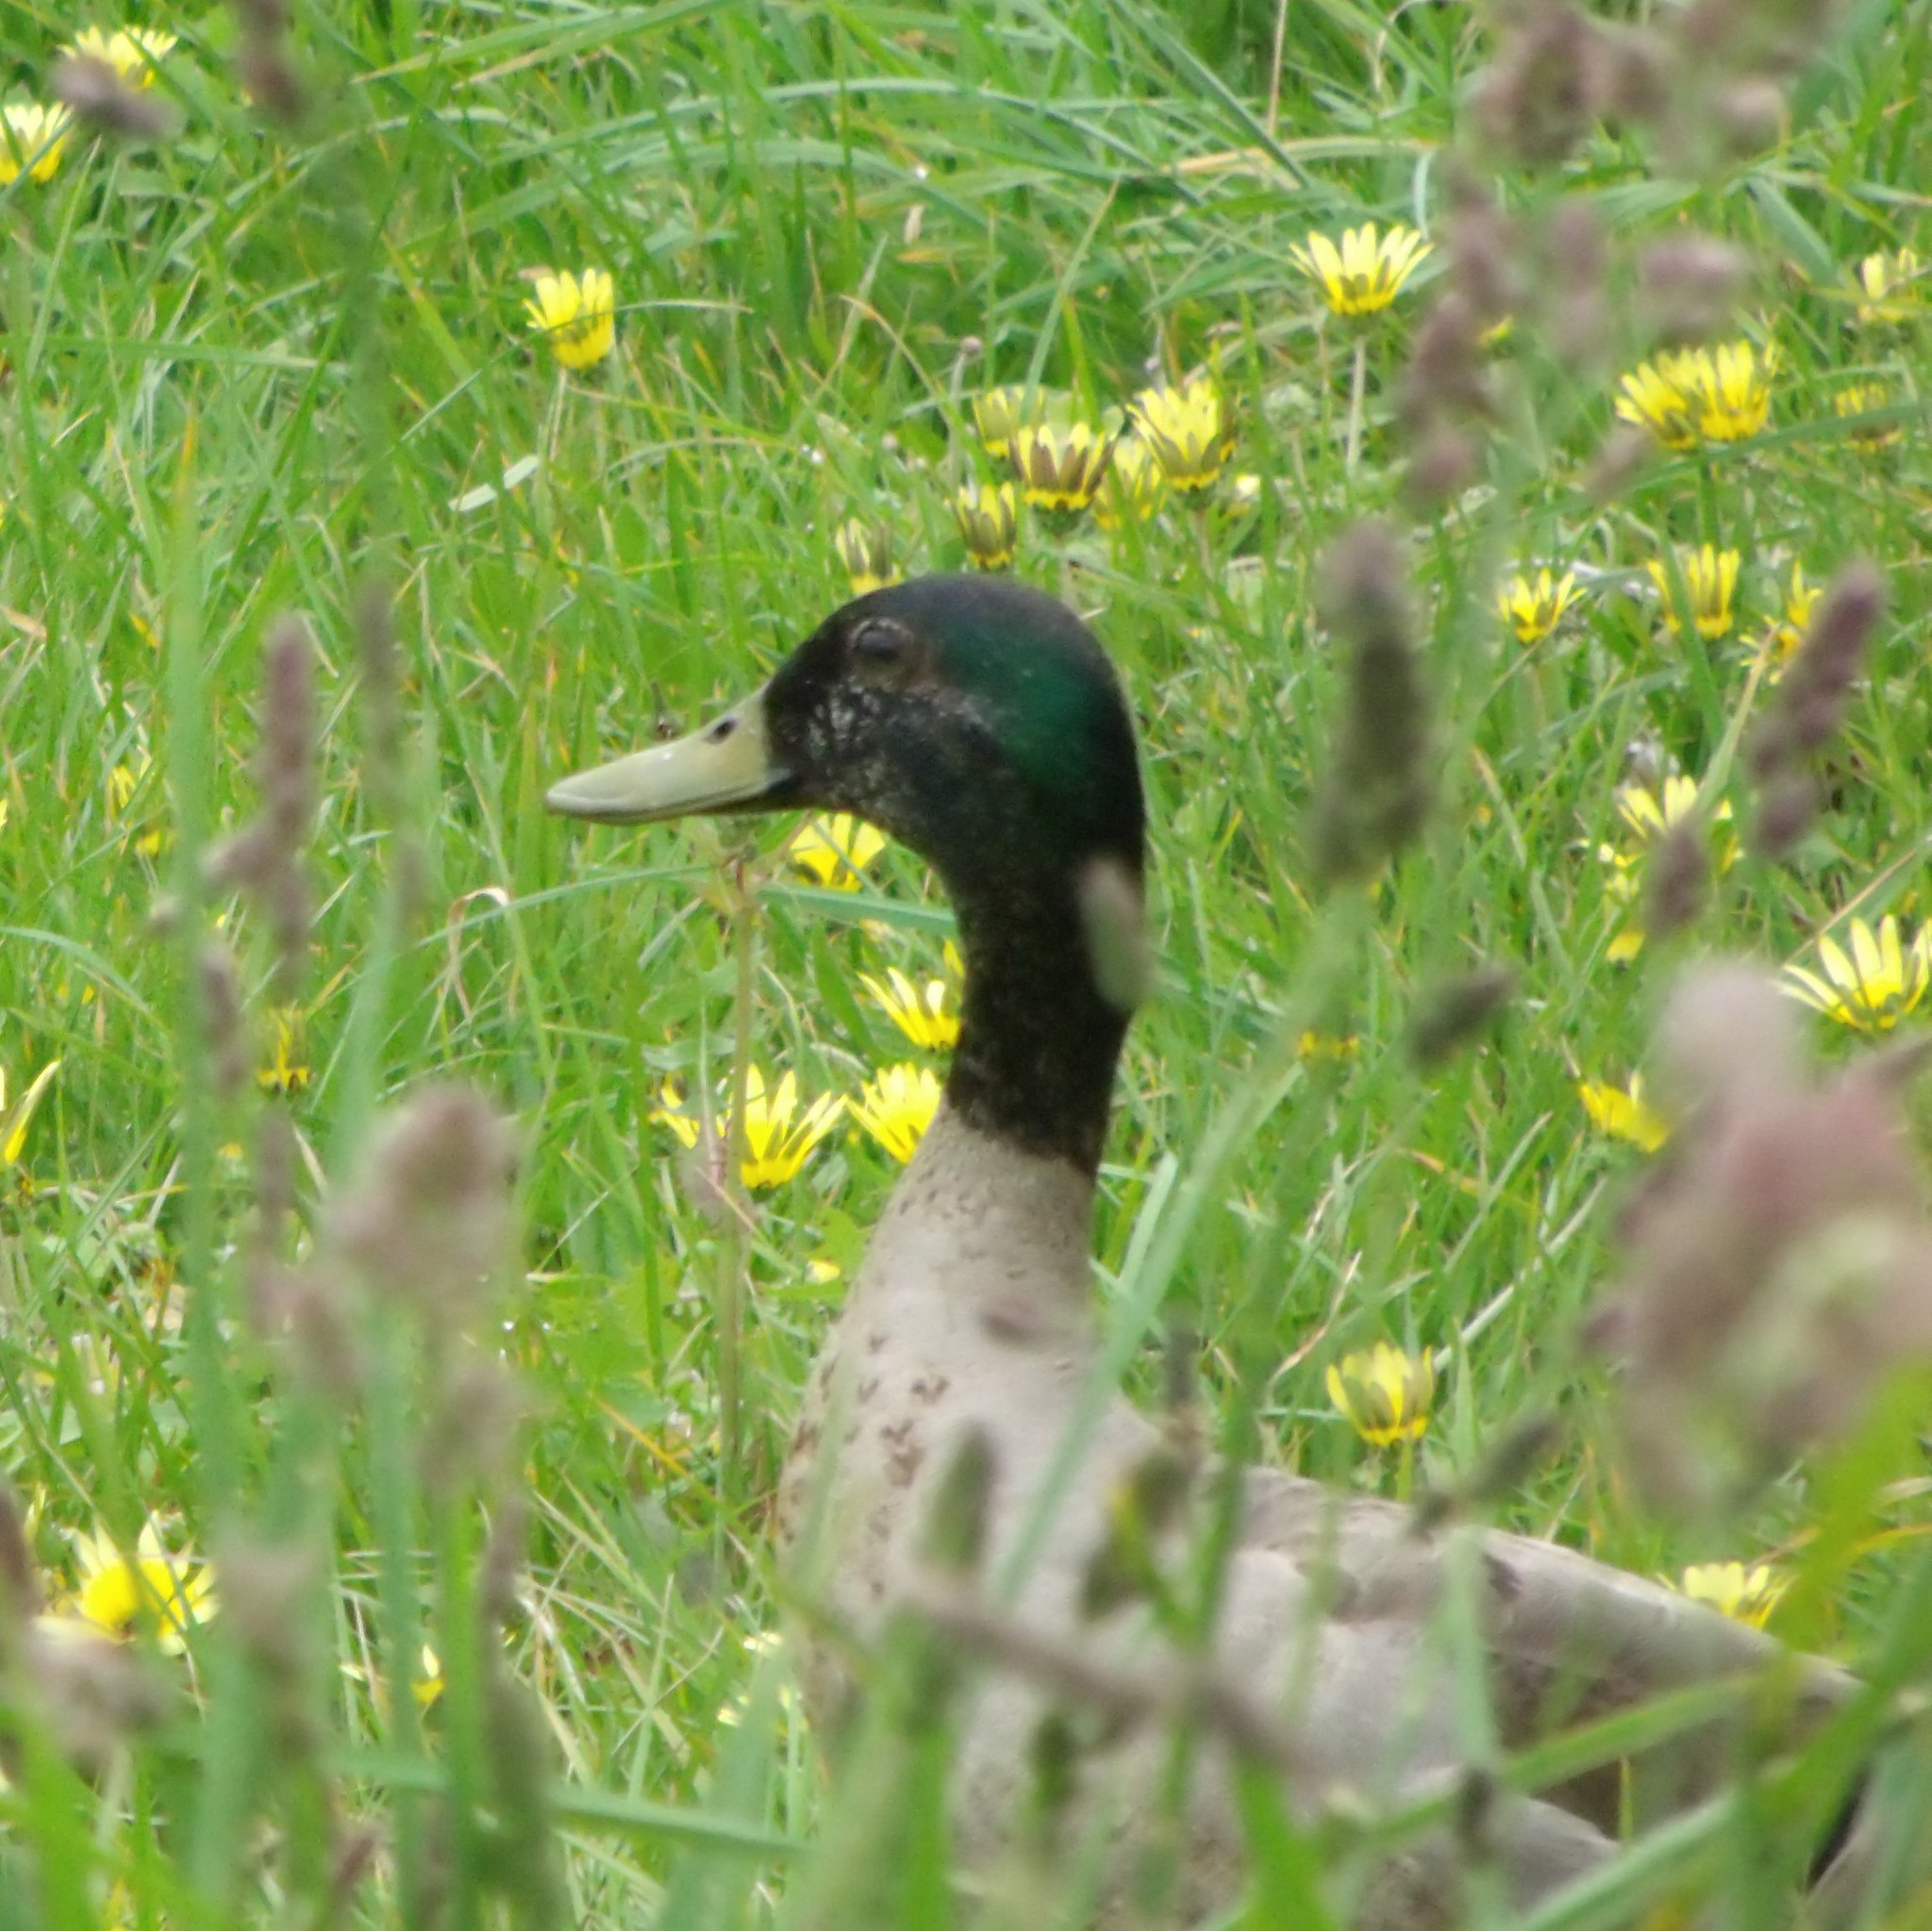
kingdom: Animalia
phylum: Chordata
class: Aves
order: Anseriformes
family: Anatidae
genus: Anas
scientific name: Anas platyrhynchos
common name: Mallard
